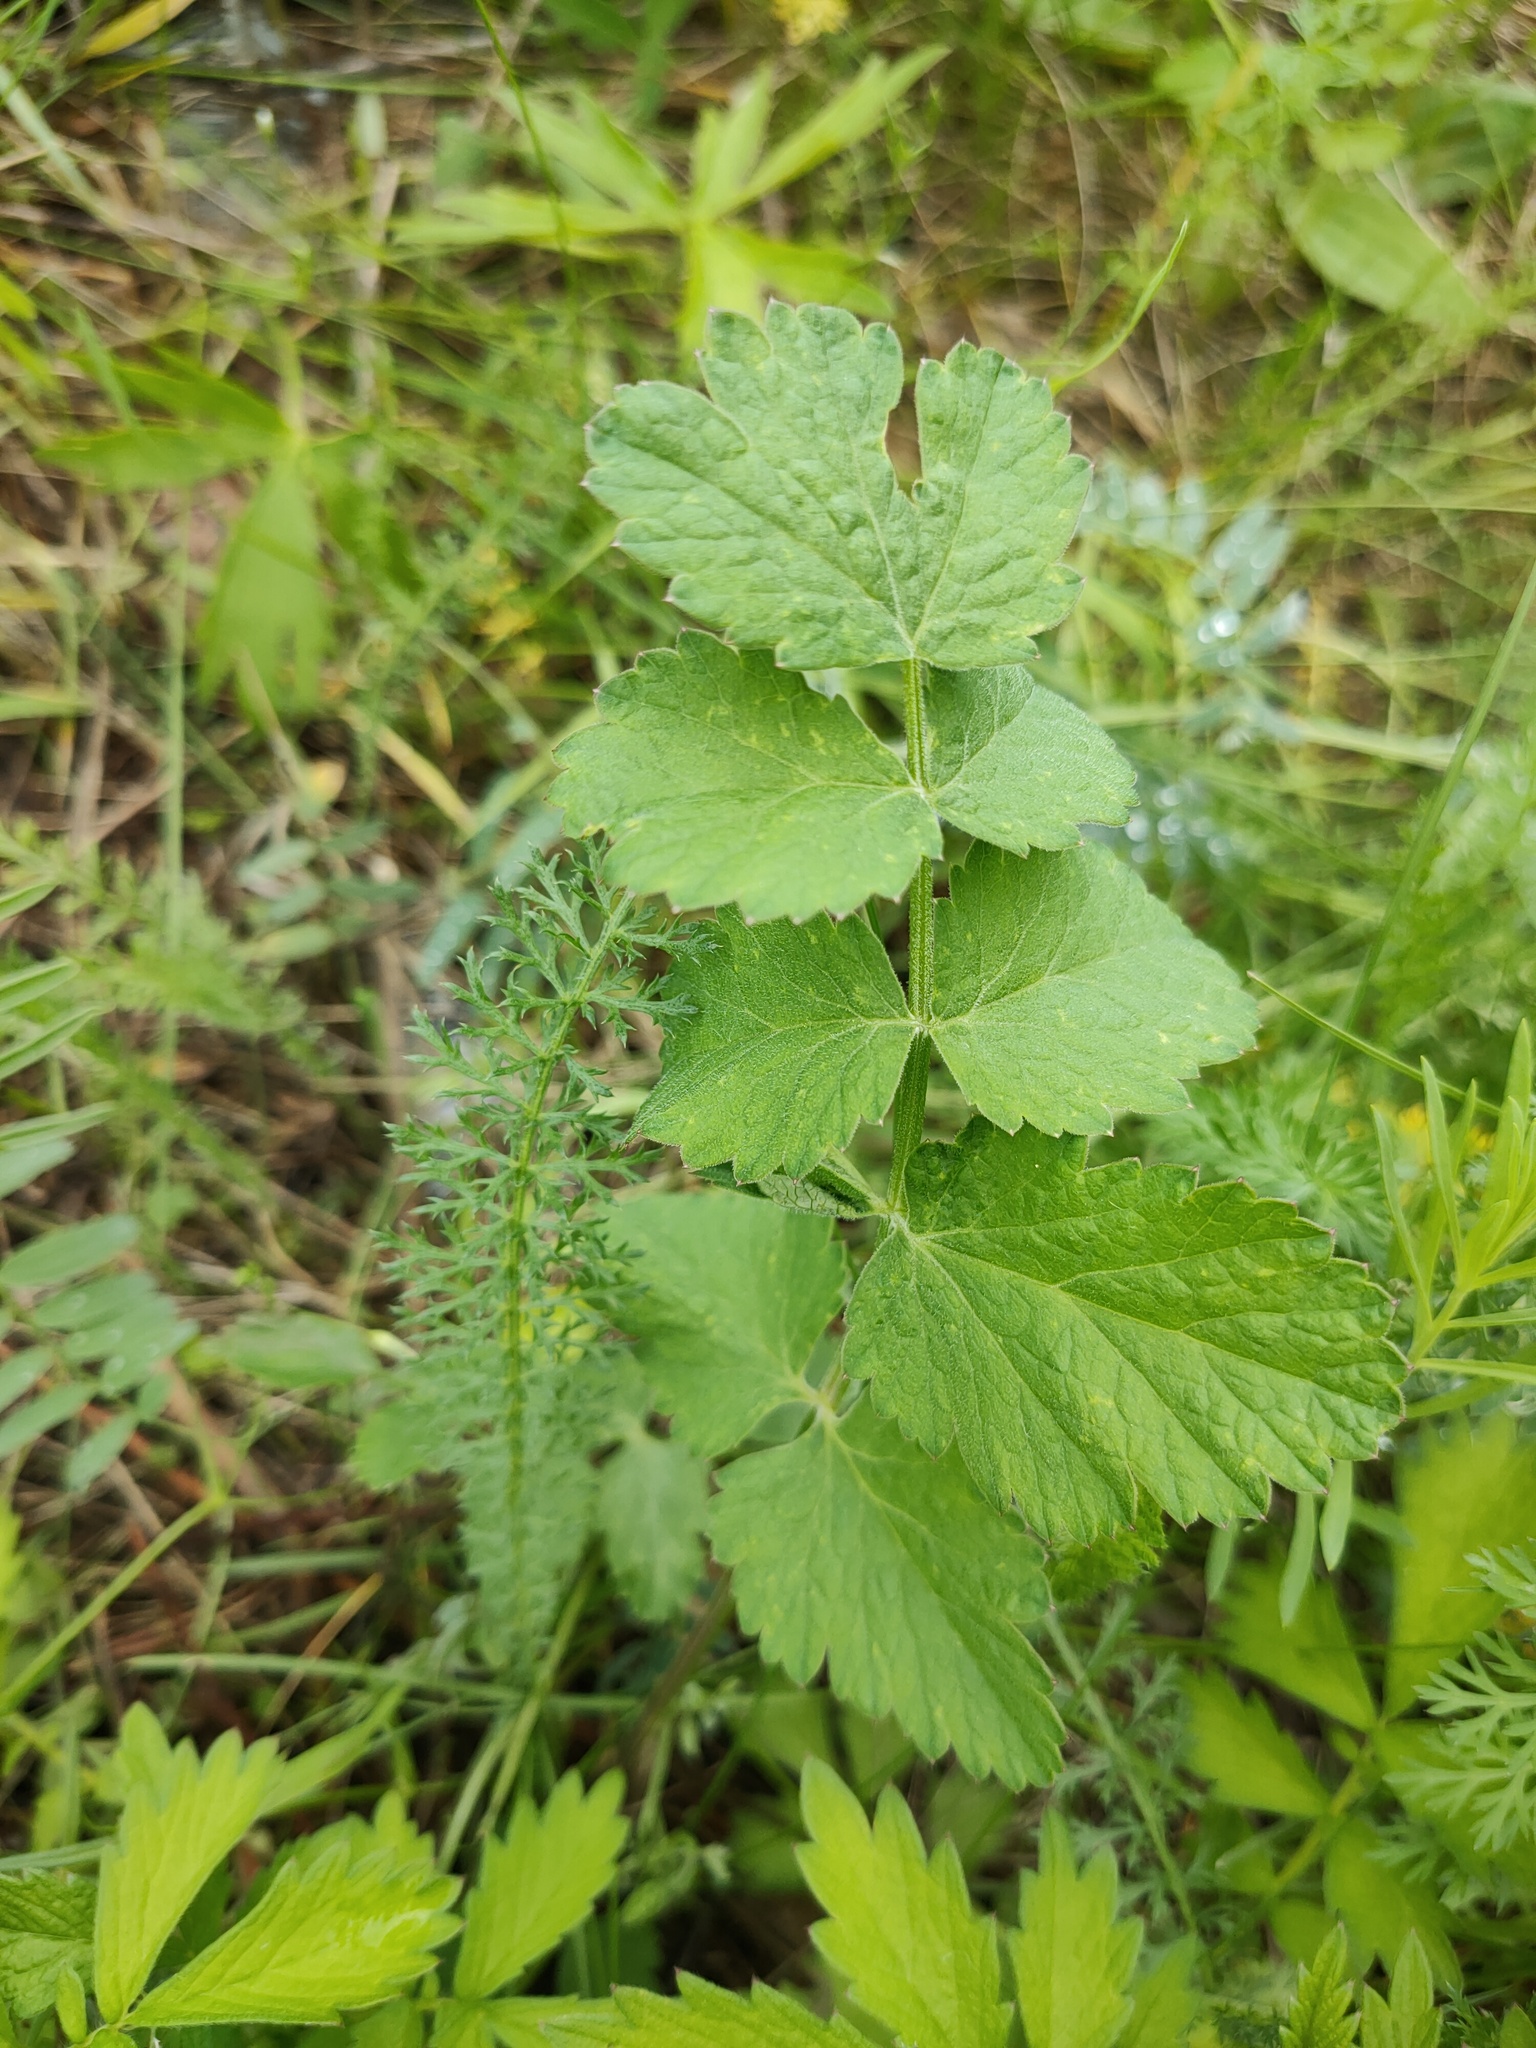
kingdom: Plantae
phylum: Tracheophyta
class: Magnoliopsida
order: Apiales
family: Apiaceae
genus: Pimpinella
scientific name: Pimpinella saxifraga
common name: Burnet-saxifrage
